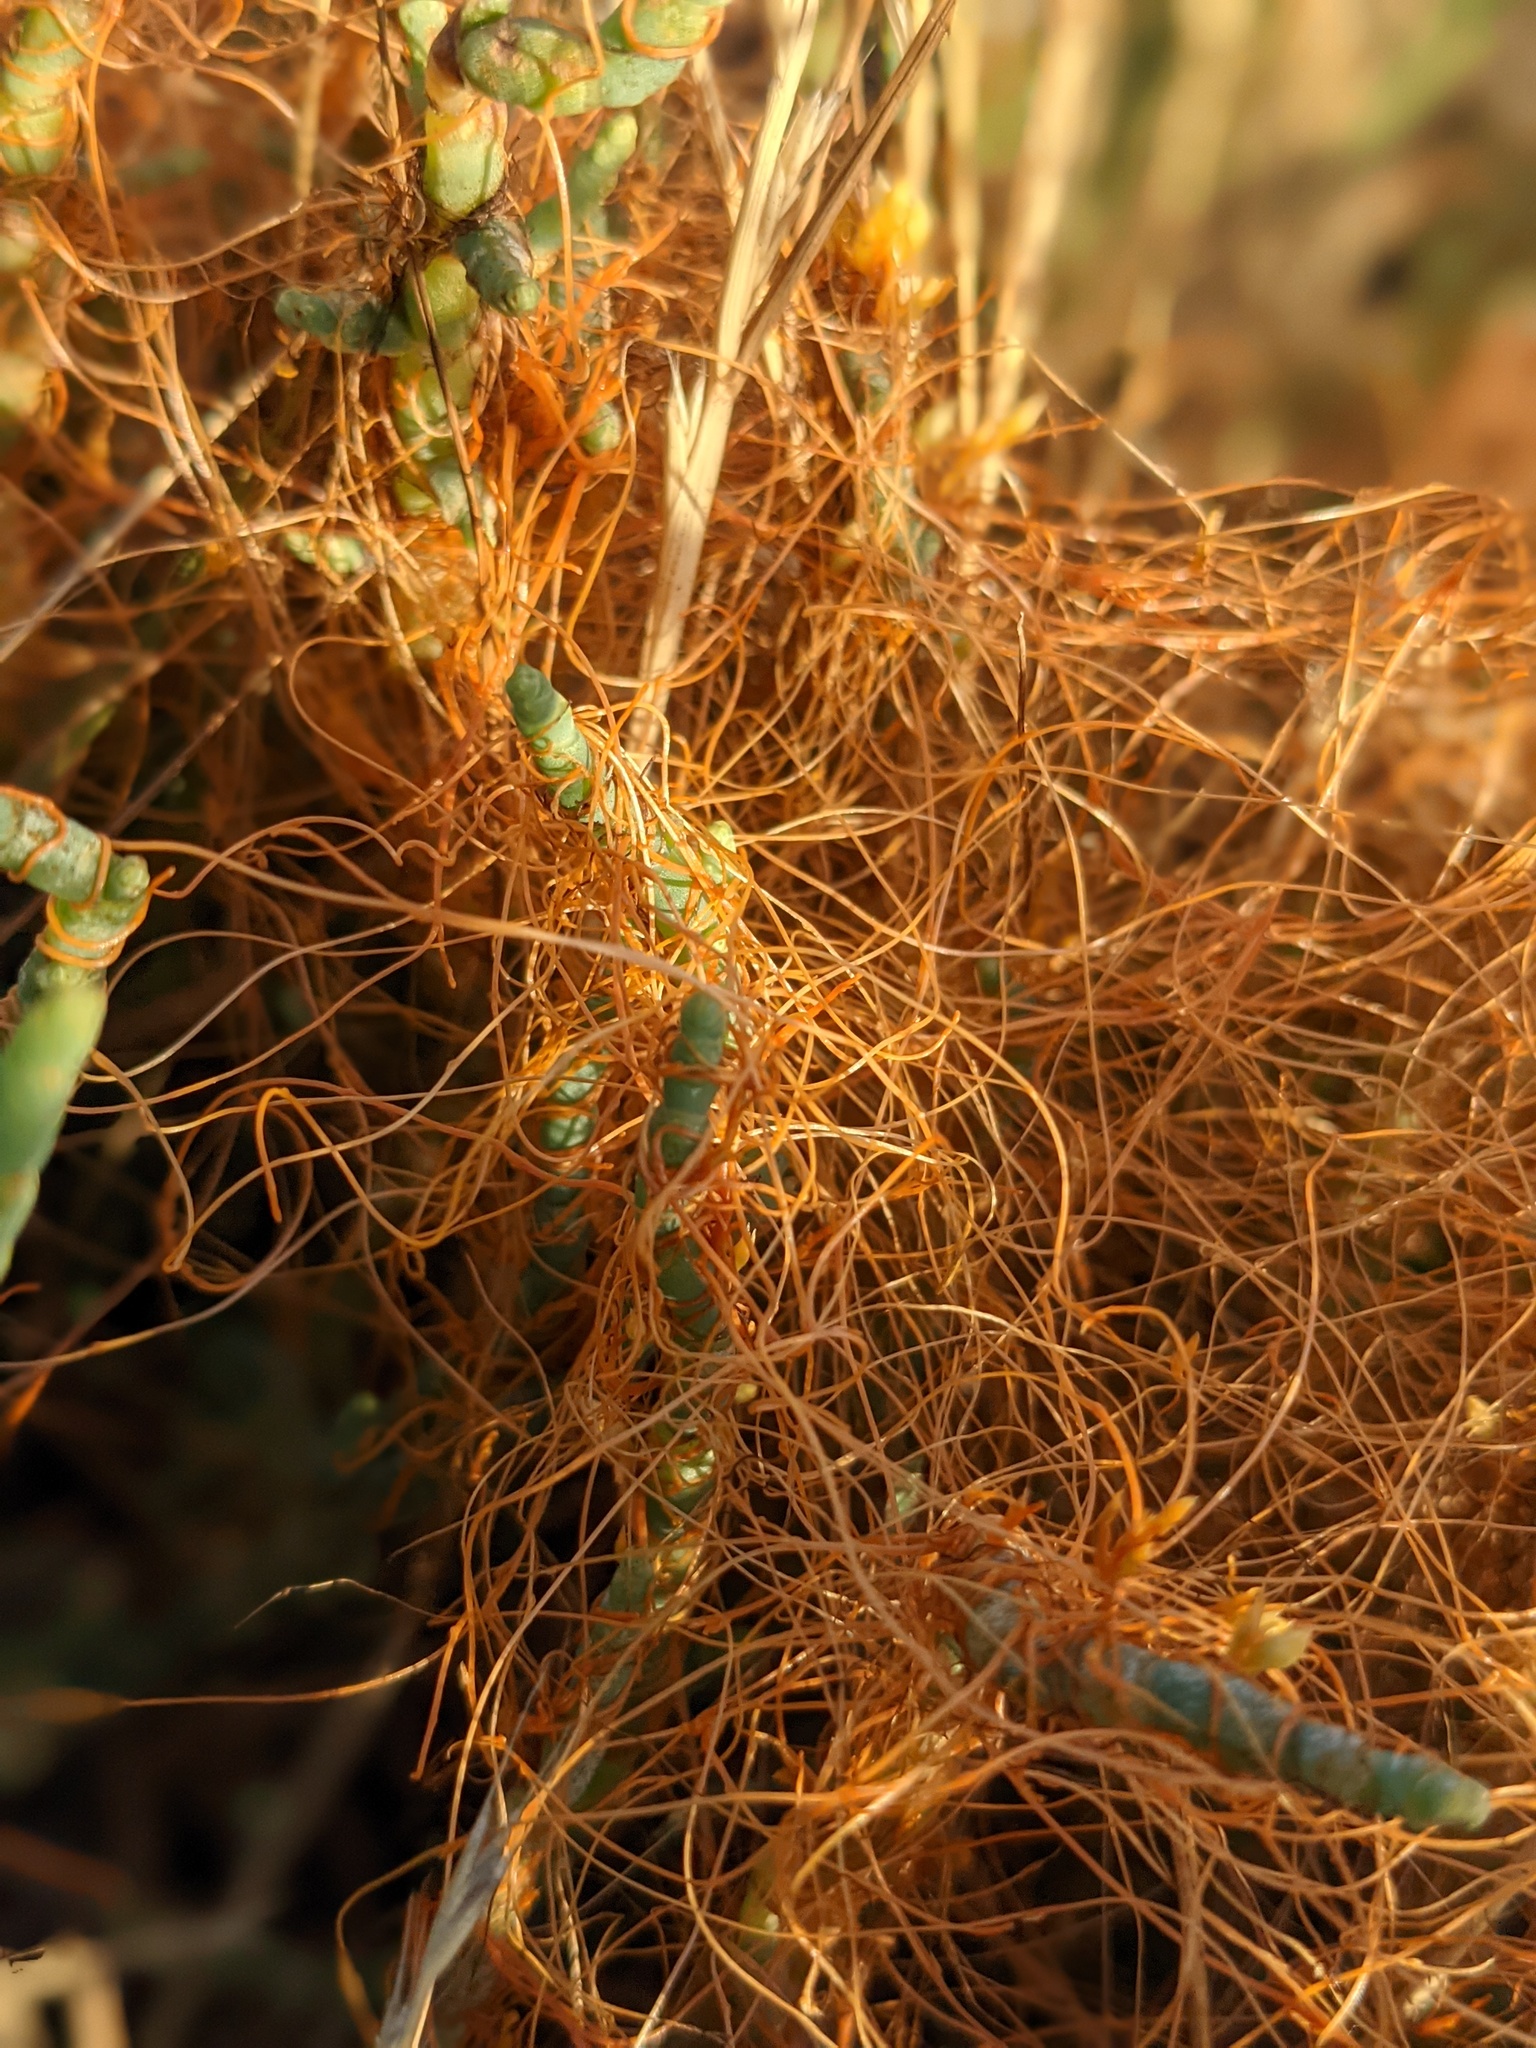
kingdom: Plantae
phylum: Tracheophyta
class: Magnoliopsida
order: Solanales
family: Convolvulaceae
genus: Cuscuta
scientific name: Cuscuta pacifica
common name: Large saltmarsh dodder
